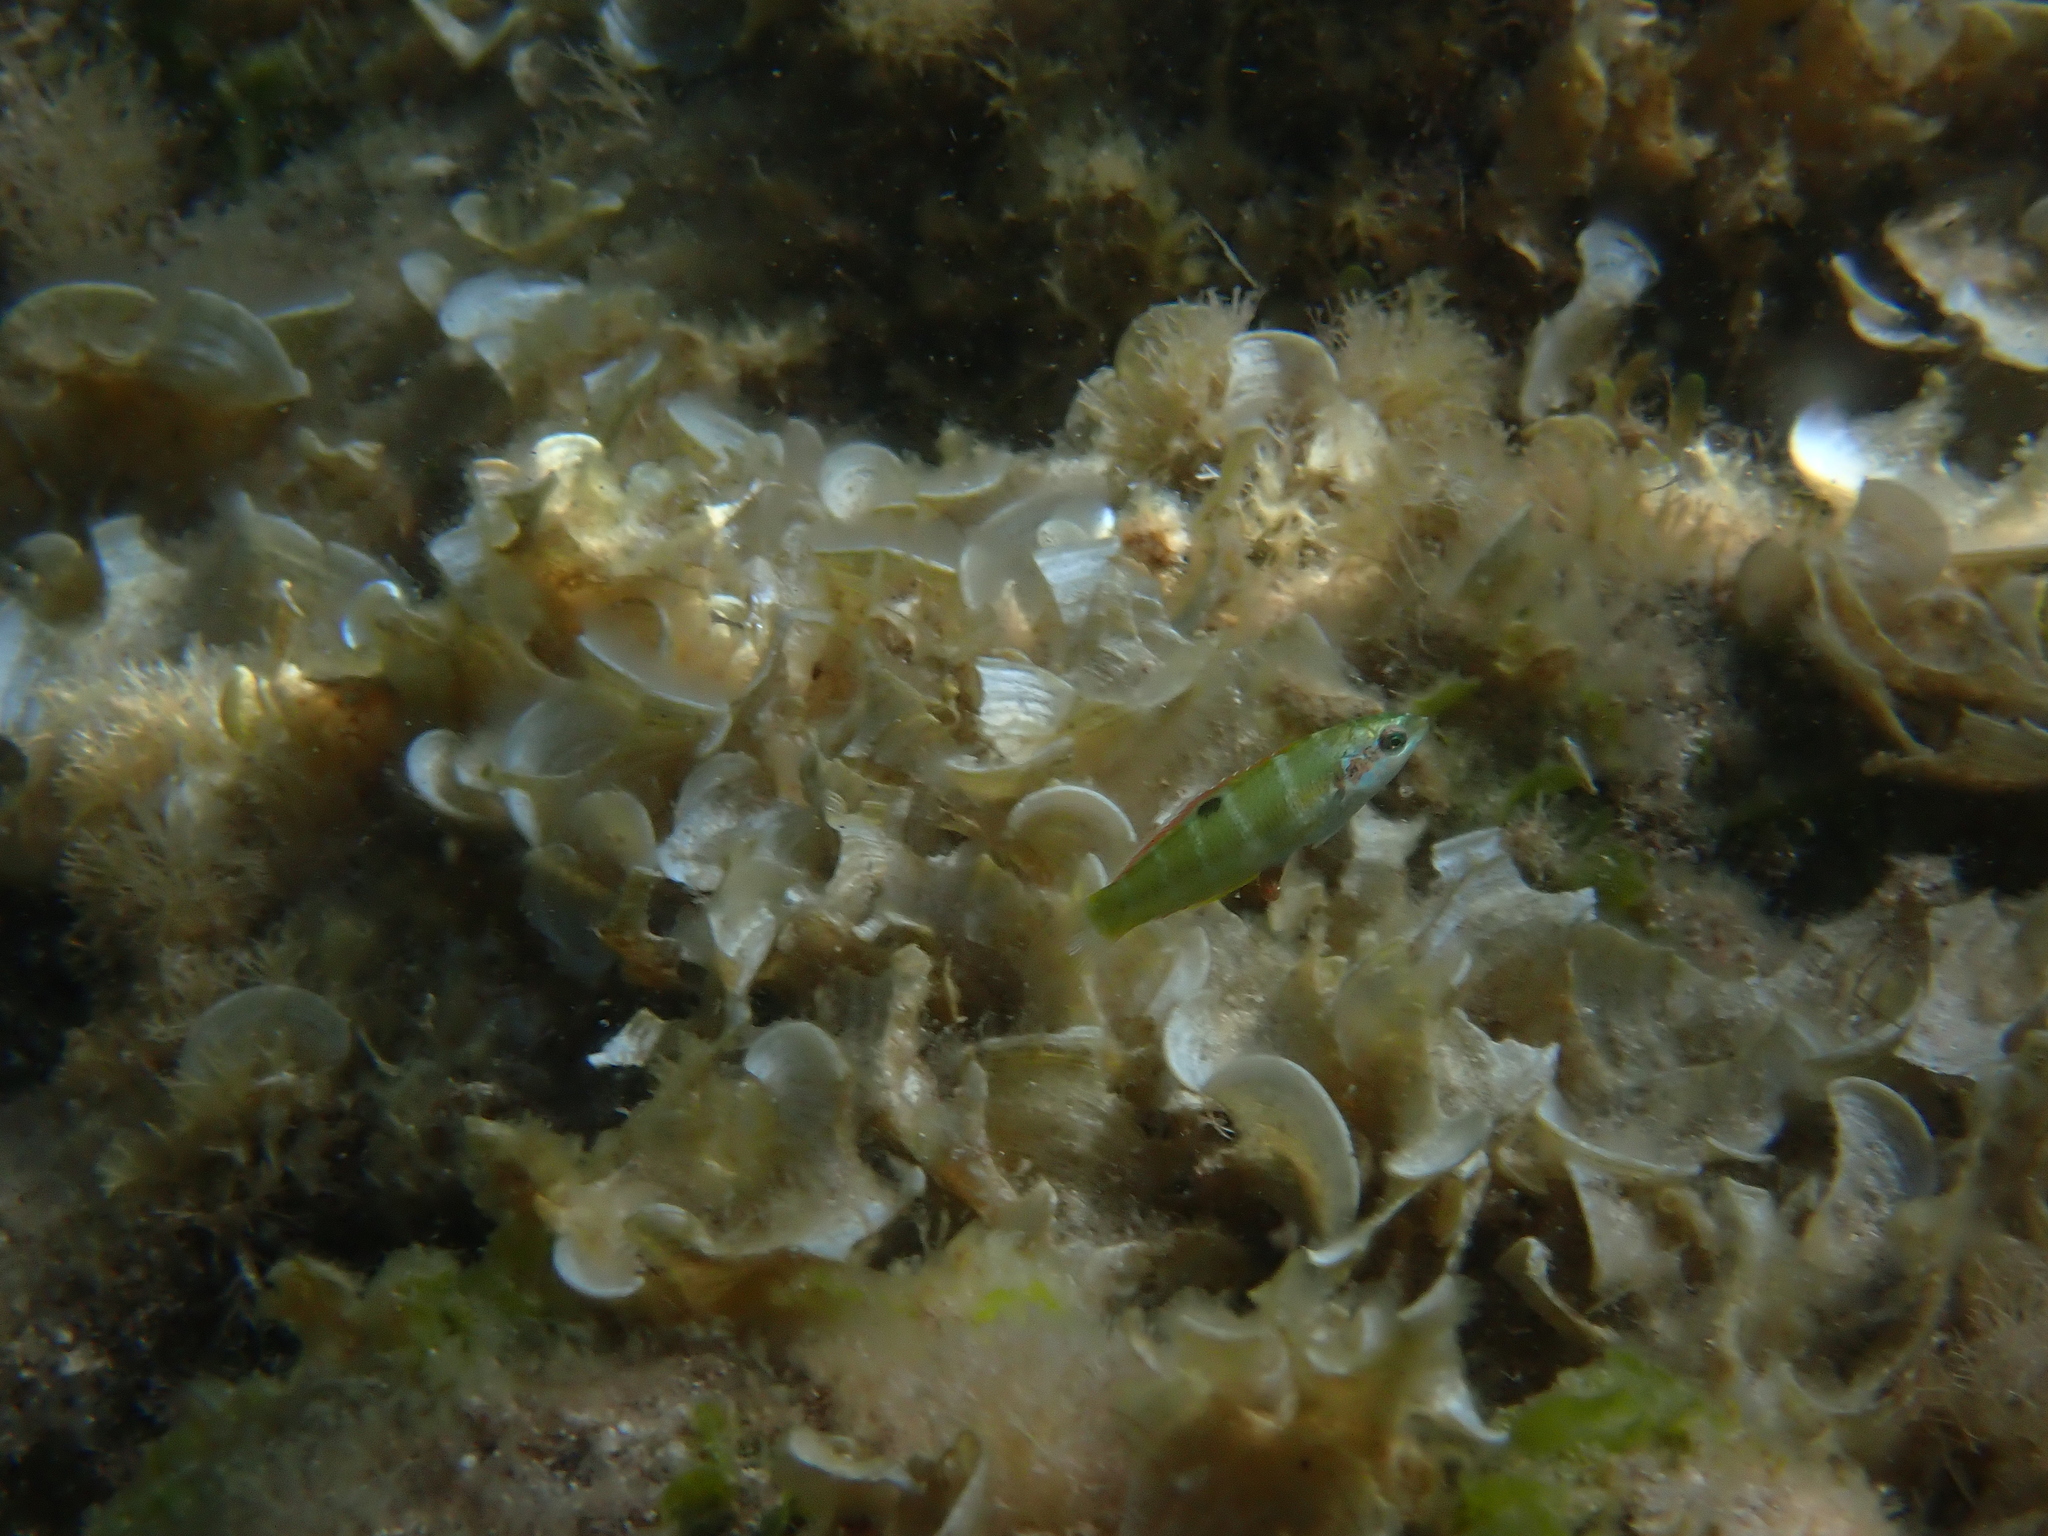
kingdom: Animalia
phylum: Chordata
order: Perciformes
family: Labridae
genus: Thalassoma
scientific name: Thalassoma pavo
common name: Ornate wrasse
